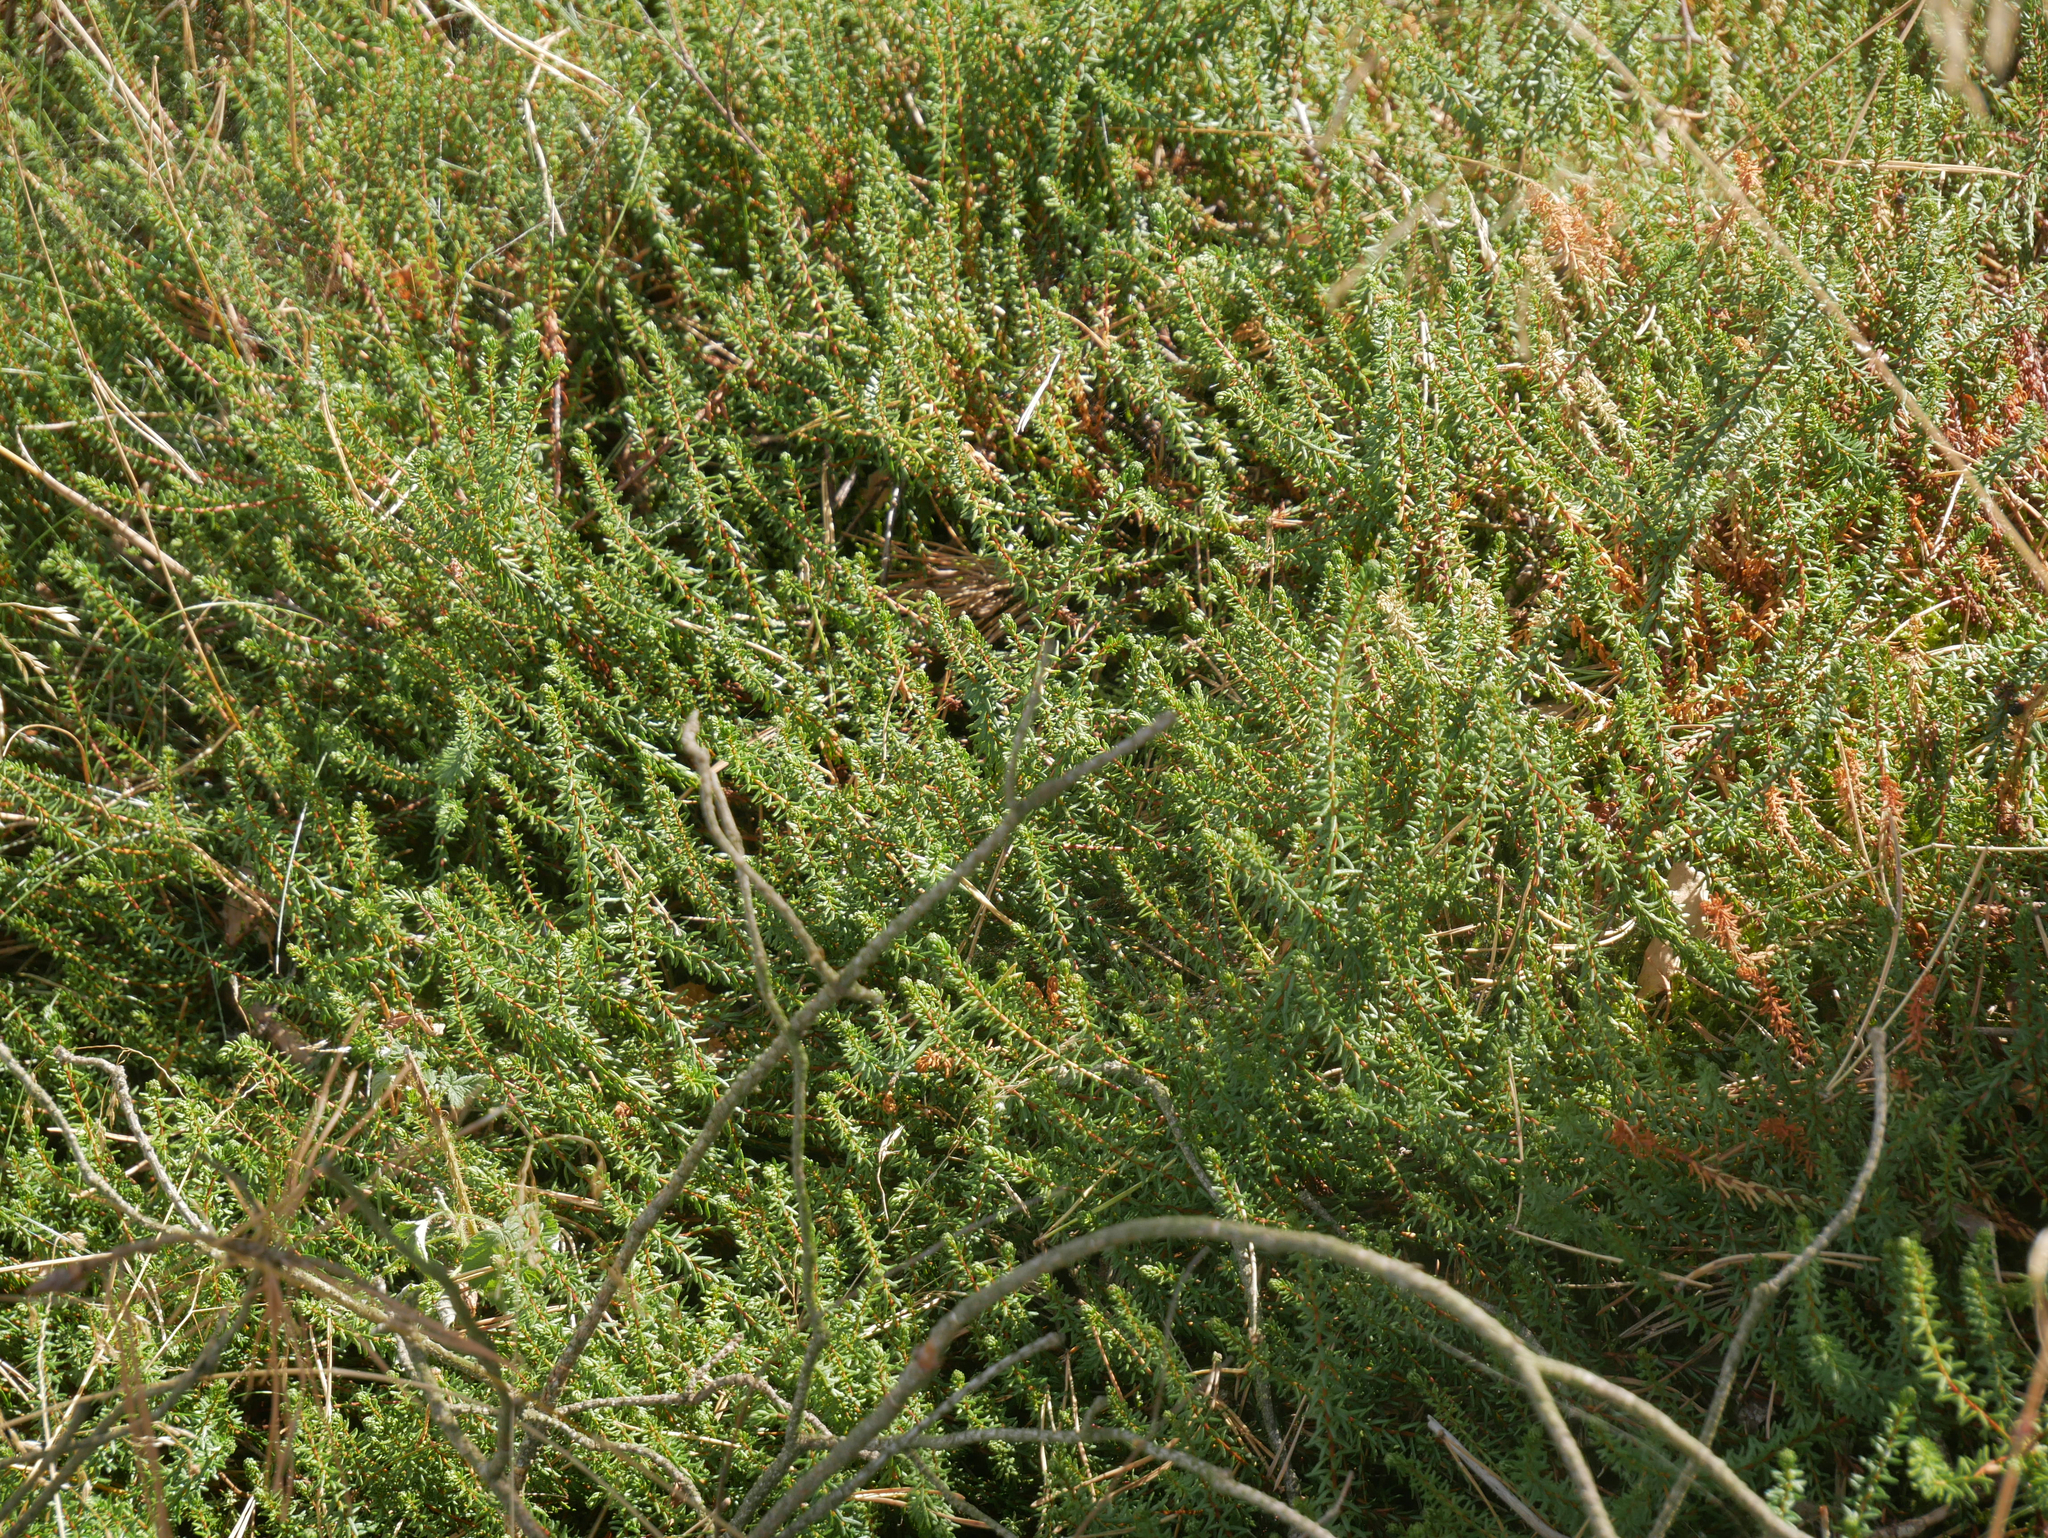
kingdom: Plantae
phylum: Tracheophyta
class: Magnoliopsida
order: Ericales
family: Ericaceae
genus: Empetrum
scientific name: Empetrum nigrum
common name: Black crowberry
